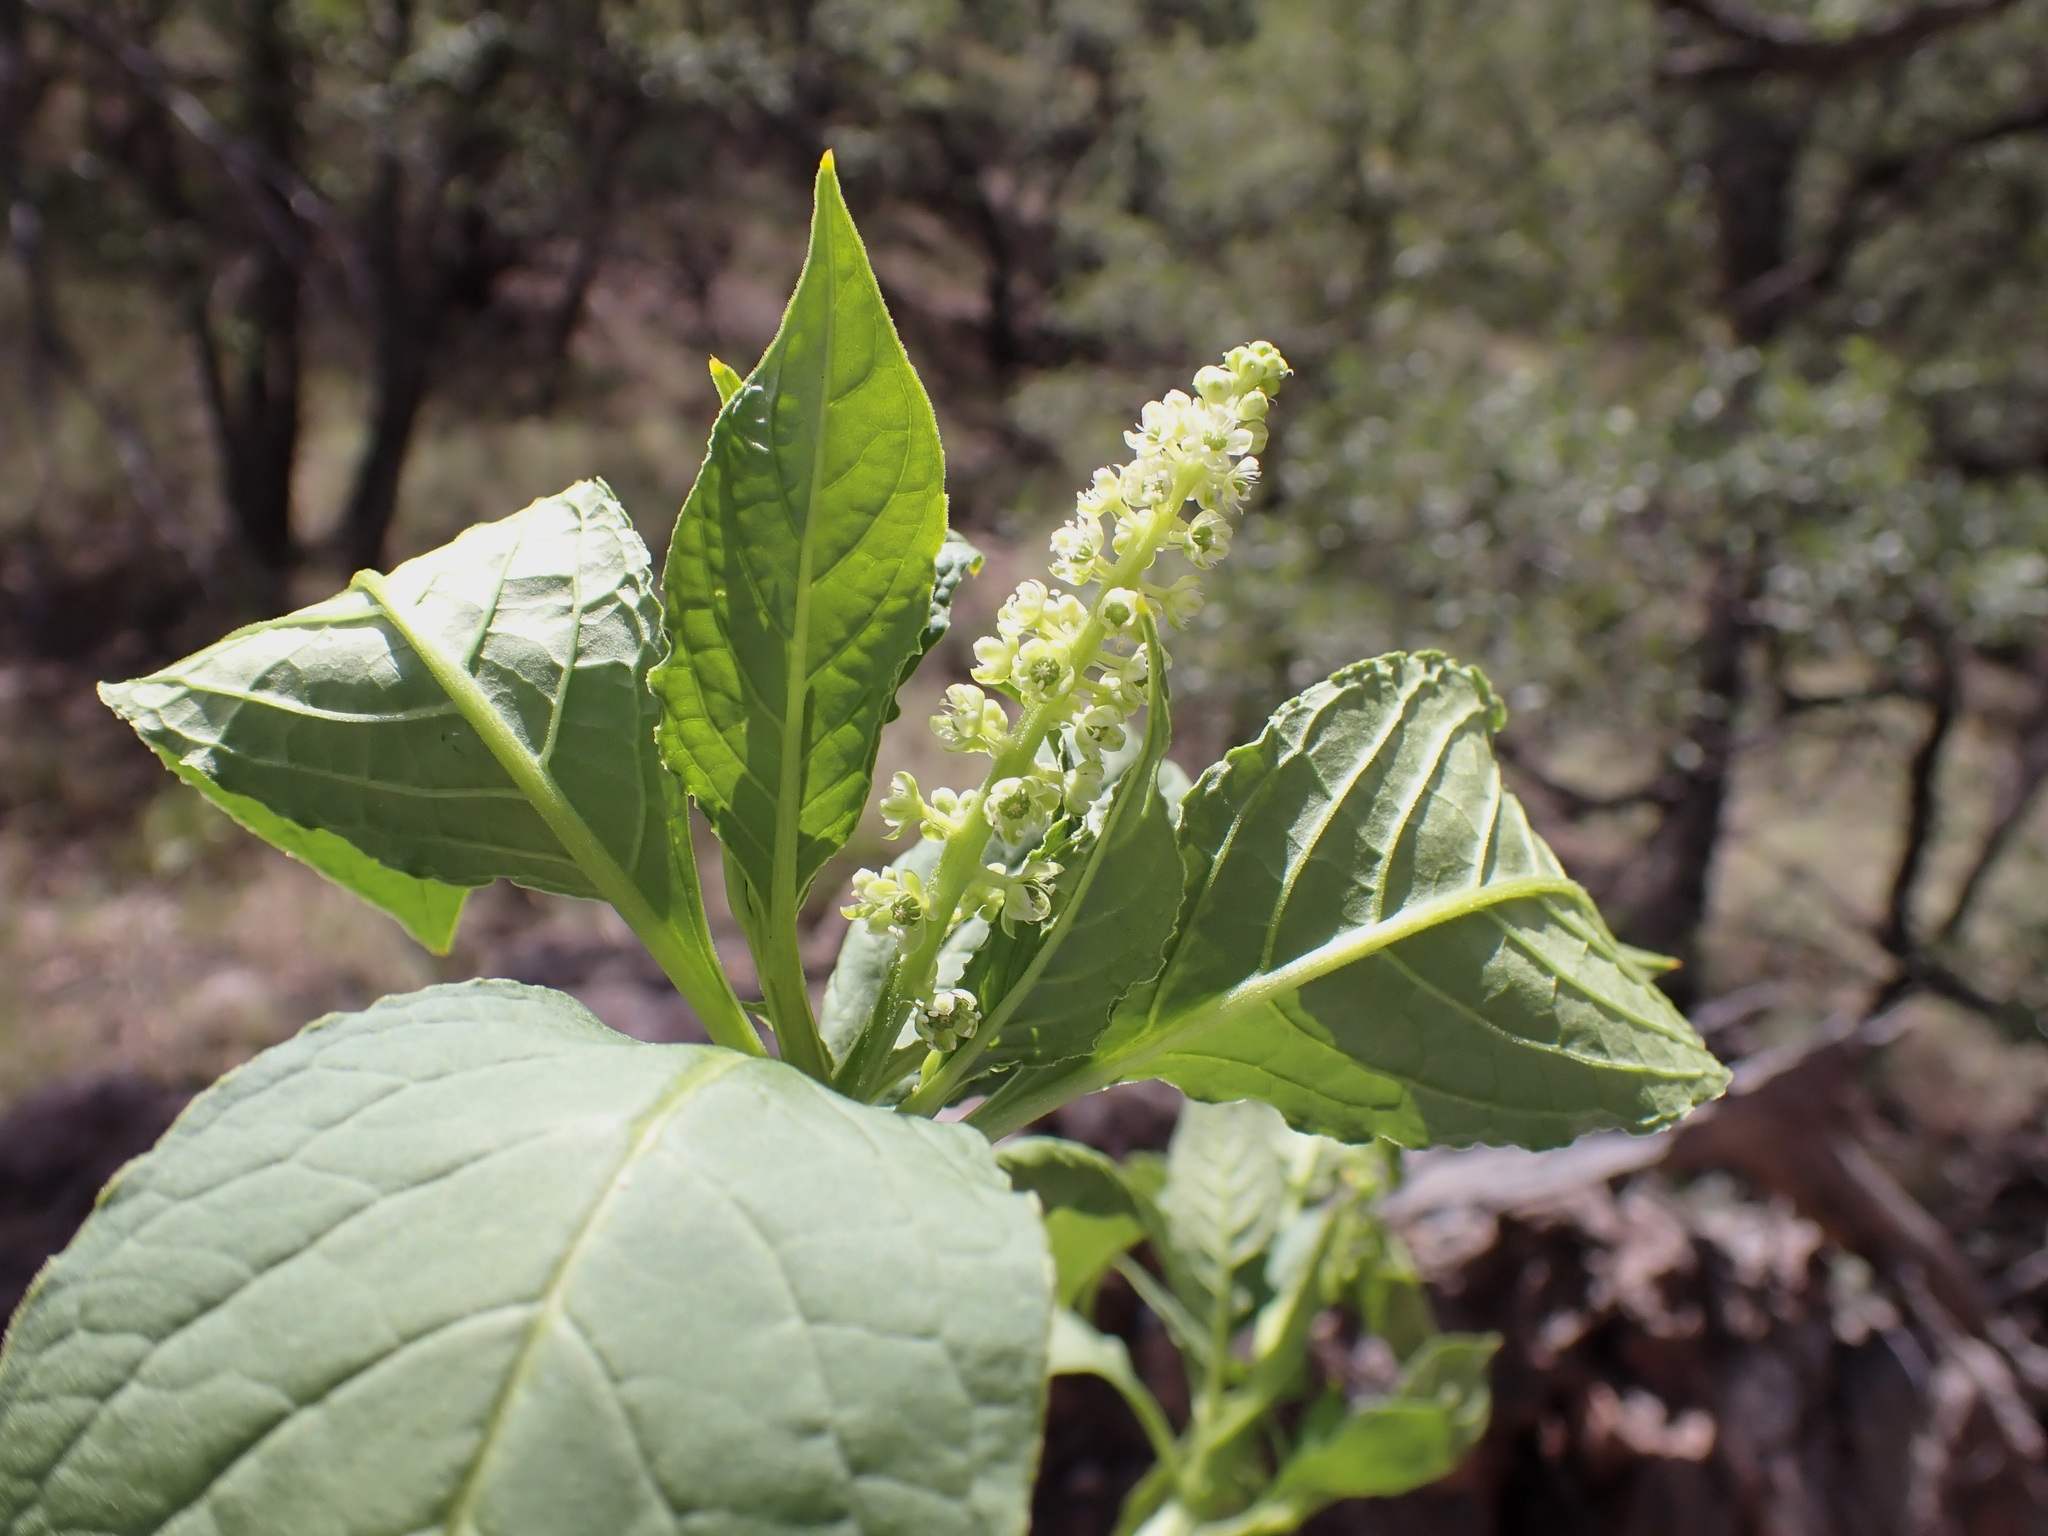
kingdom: Plantae
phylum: Tracheophyta
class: Magnoliopsida
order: Caryophyllales
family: Phytolaccaceae
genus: Phytolacca
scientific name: Phytolacca icosandra
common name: Button pokeweed
